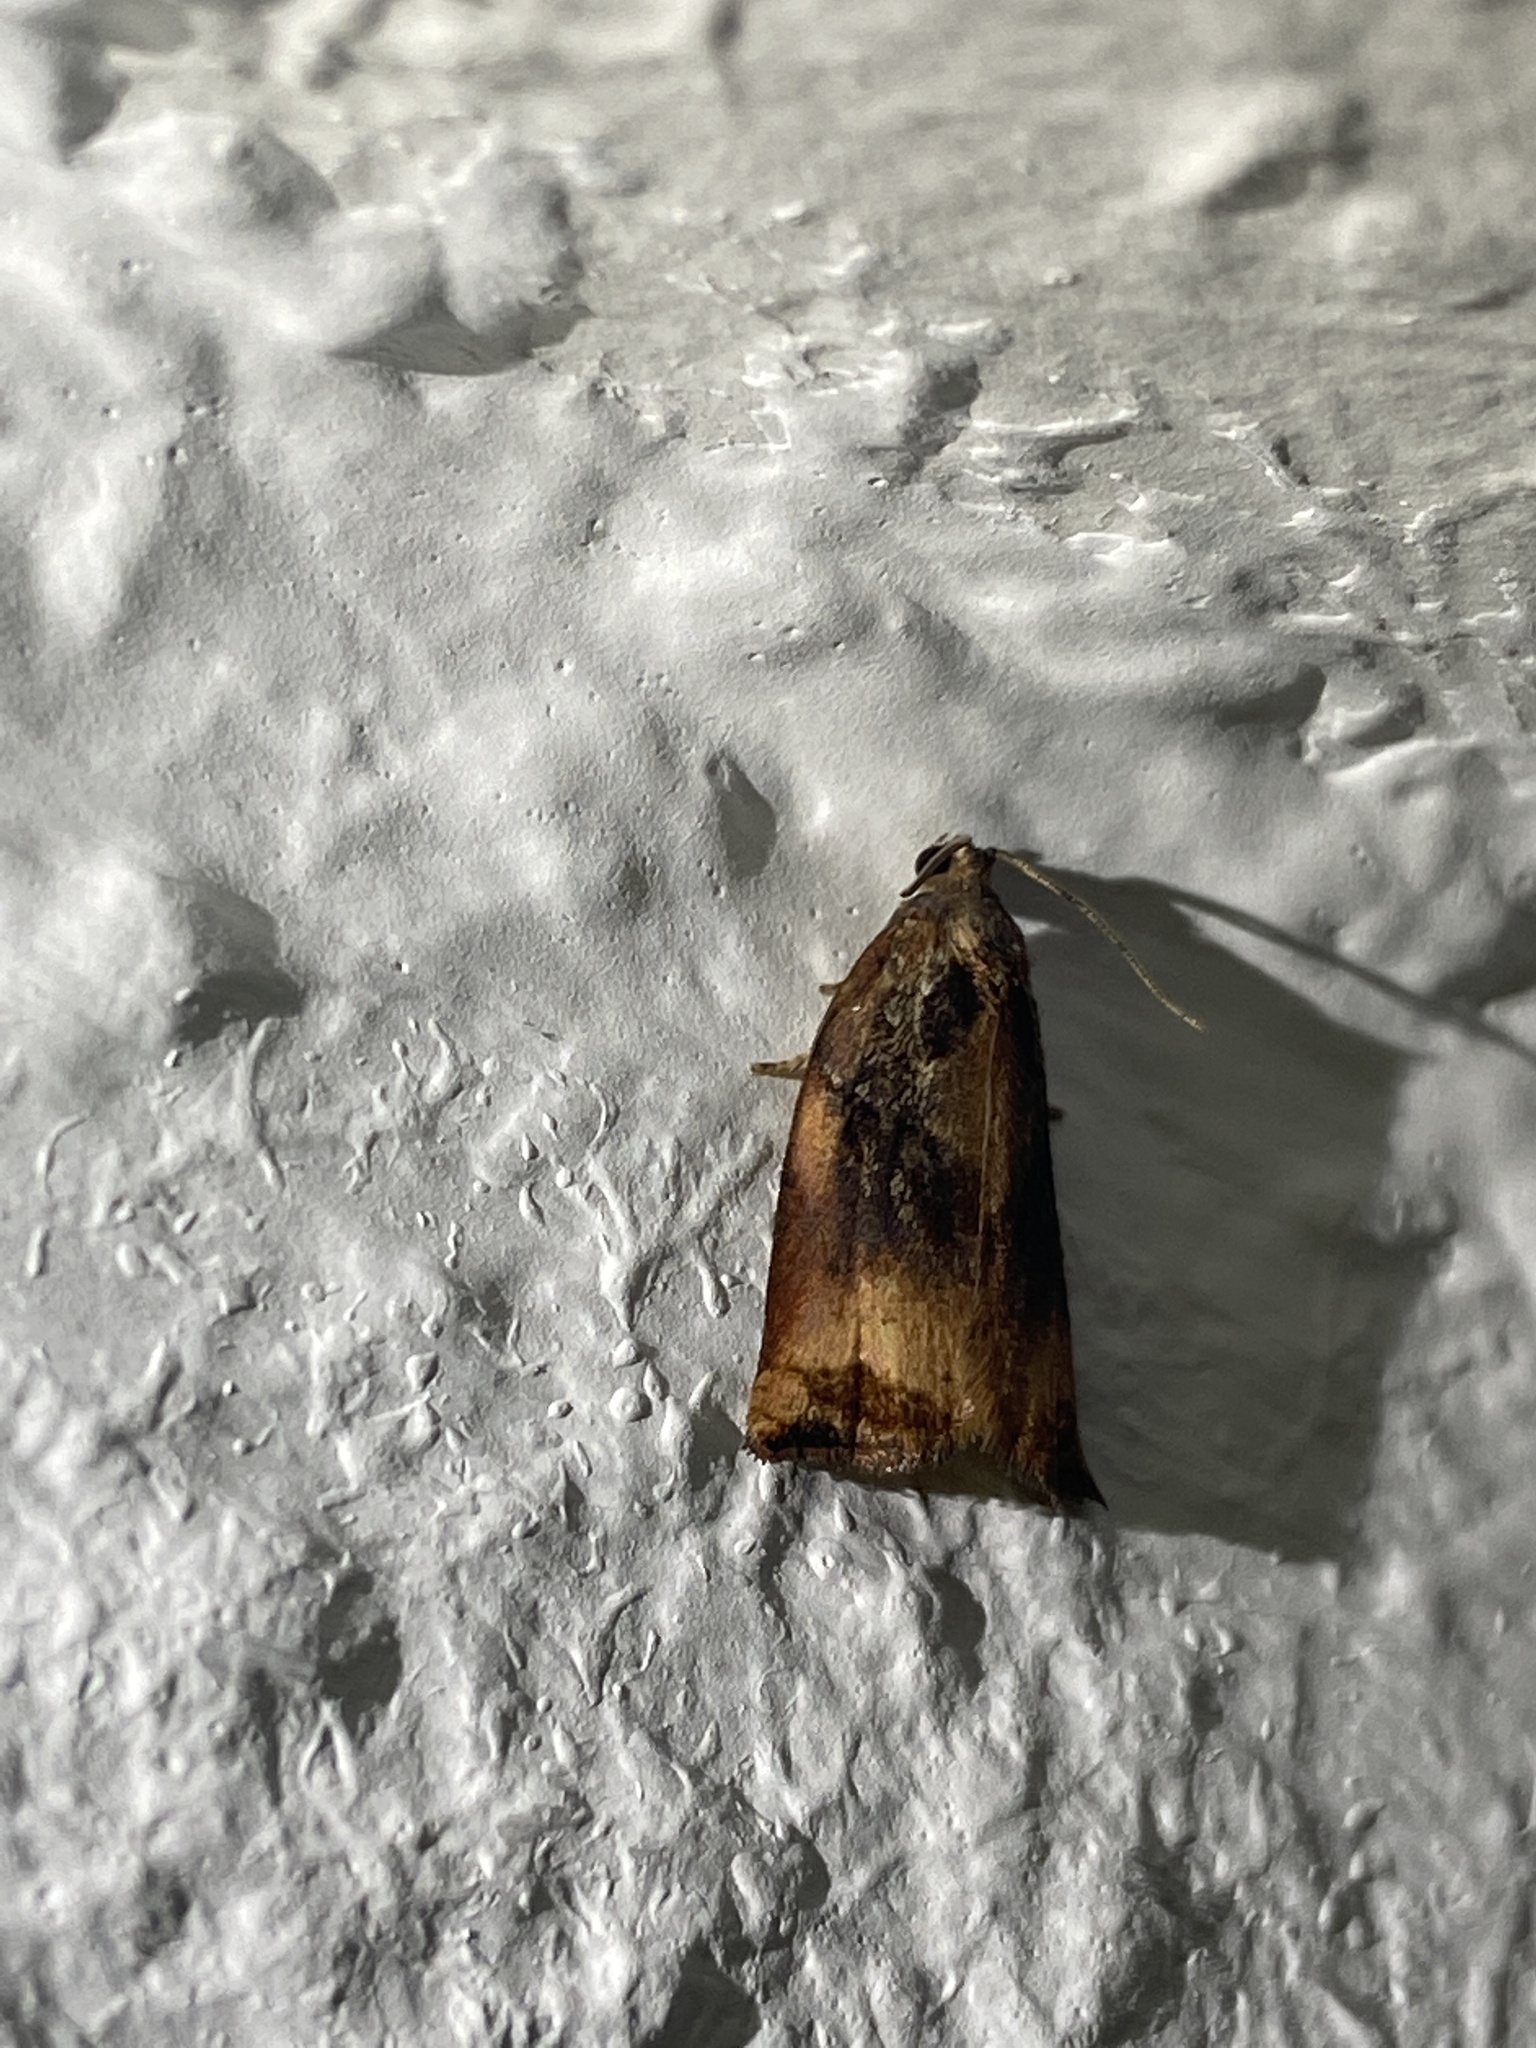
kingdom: Animalia
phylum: Arthropoda
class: Insecta
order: Lepidoptera
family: Tortricidae
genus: Archips
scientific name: Archips podana
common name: Large fruit-tree tortrix
